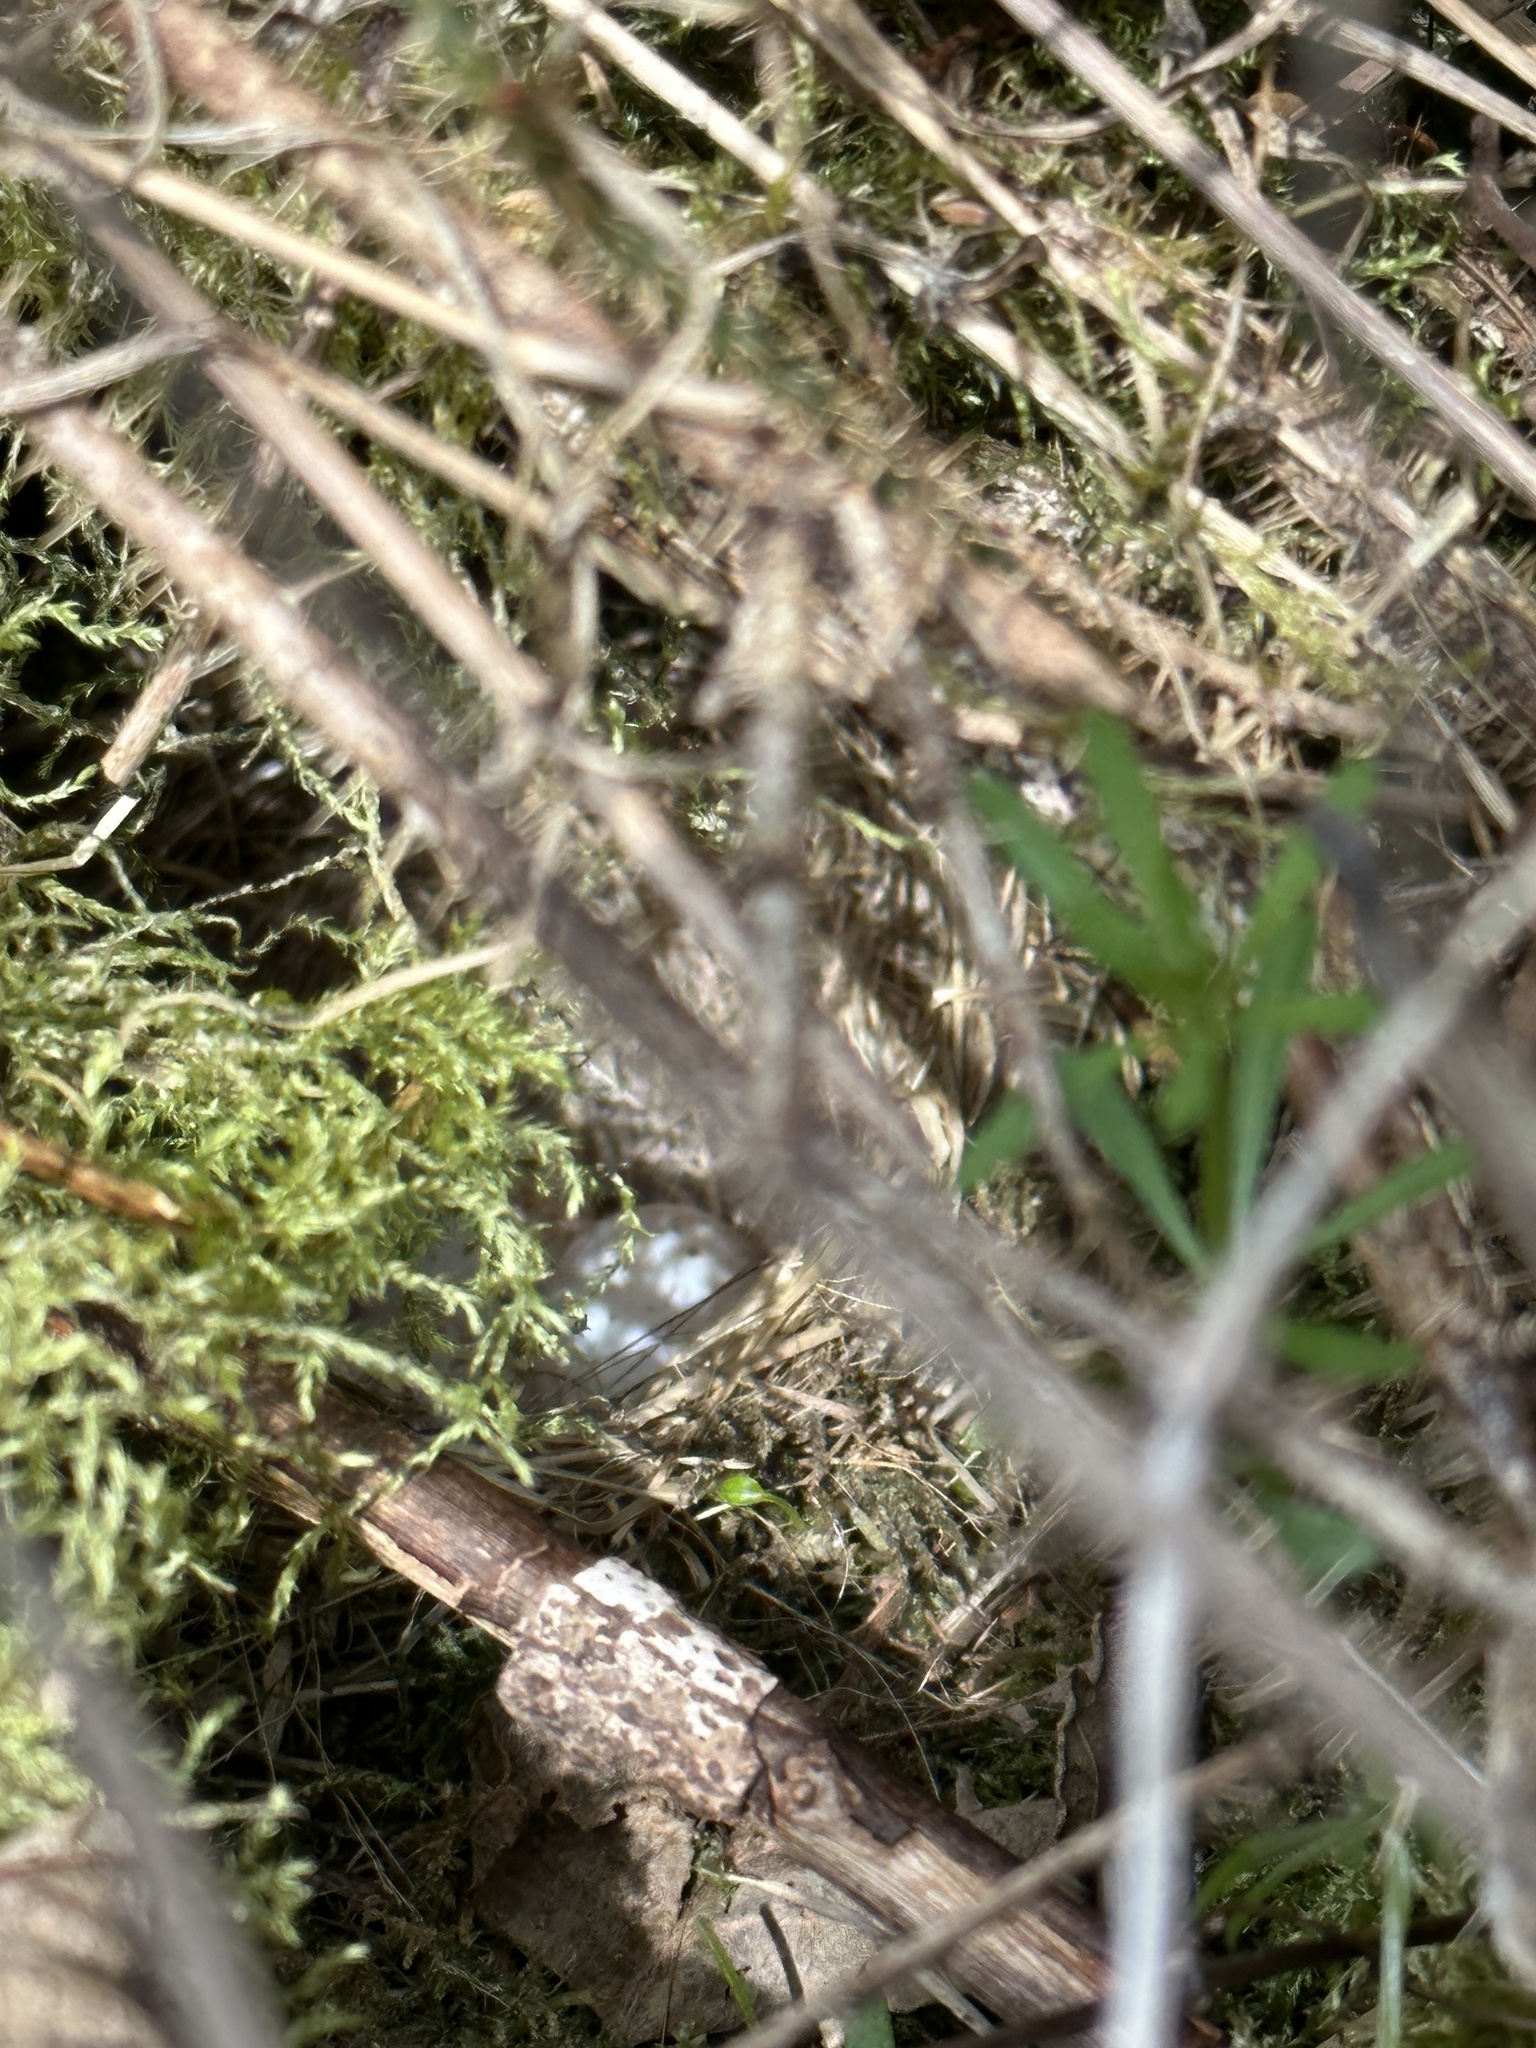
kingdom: Animalia
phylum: Chordata
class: Aves
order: Passeriformes
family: Passerellidae
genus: Junco
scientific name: Junco hyemalis
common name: Dark-eyed junco
